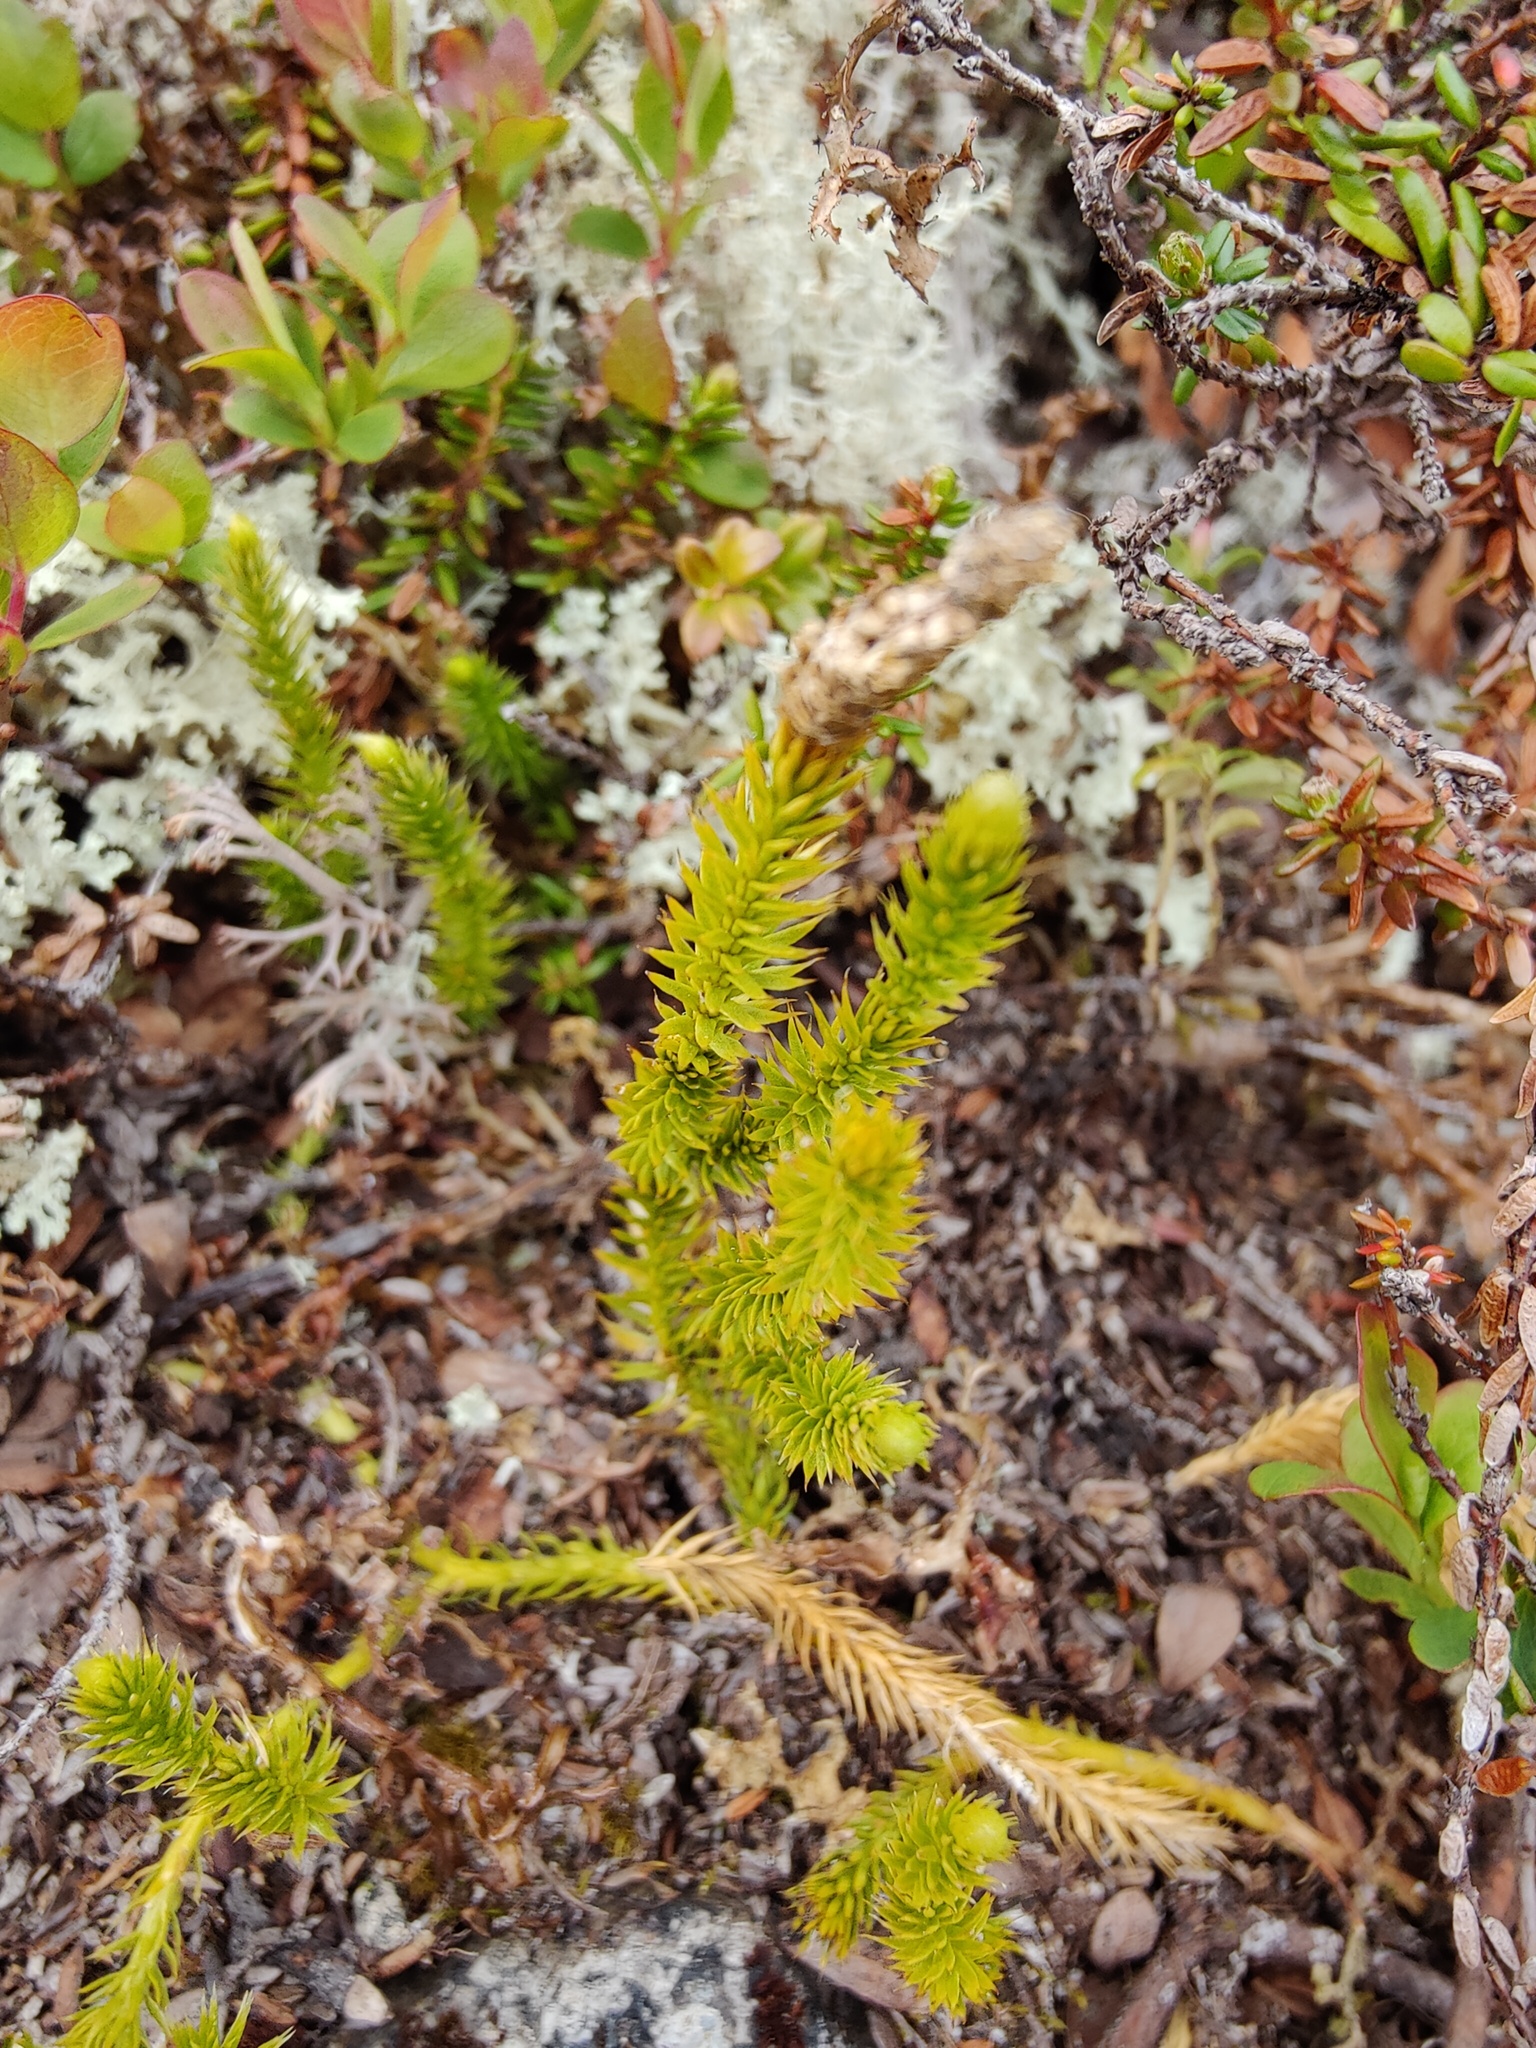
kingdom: Plantae
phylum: Tracheophyta
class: Lycopodiopsida
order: Lycopodiales
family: Lycopodiaceae
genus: Spinulum
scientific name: Spinulum annotinum
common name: Interrupted club-moss
